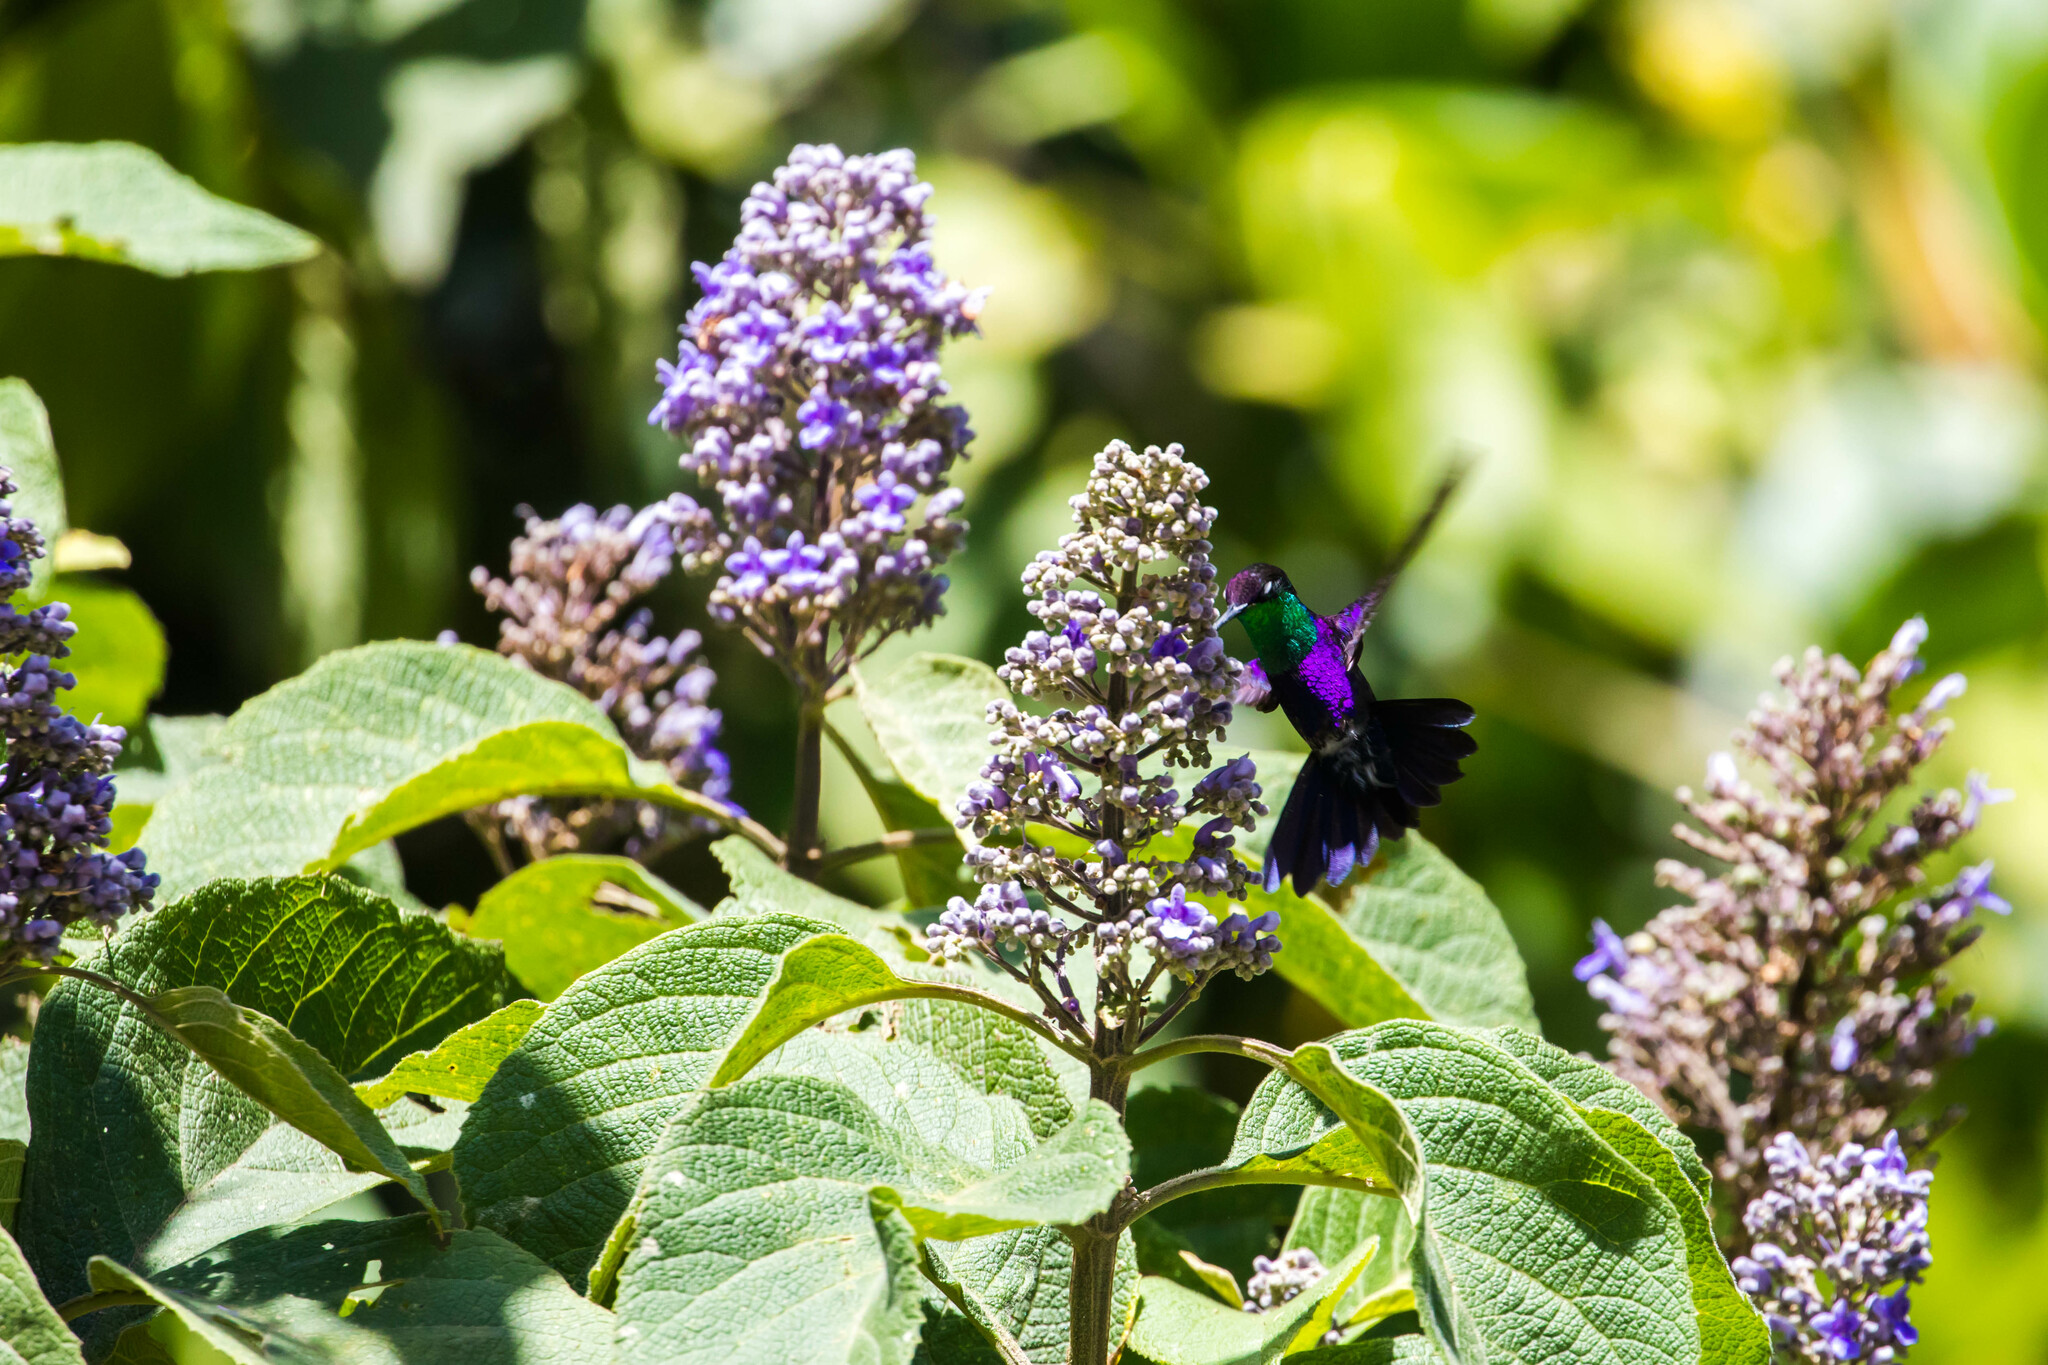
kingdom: Animalia
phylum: Chordata
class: Aves
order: Apodiformes
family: Trochilidae
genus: Thalurania
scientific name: Thalurania colombica
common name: Crowned woodnymph
